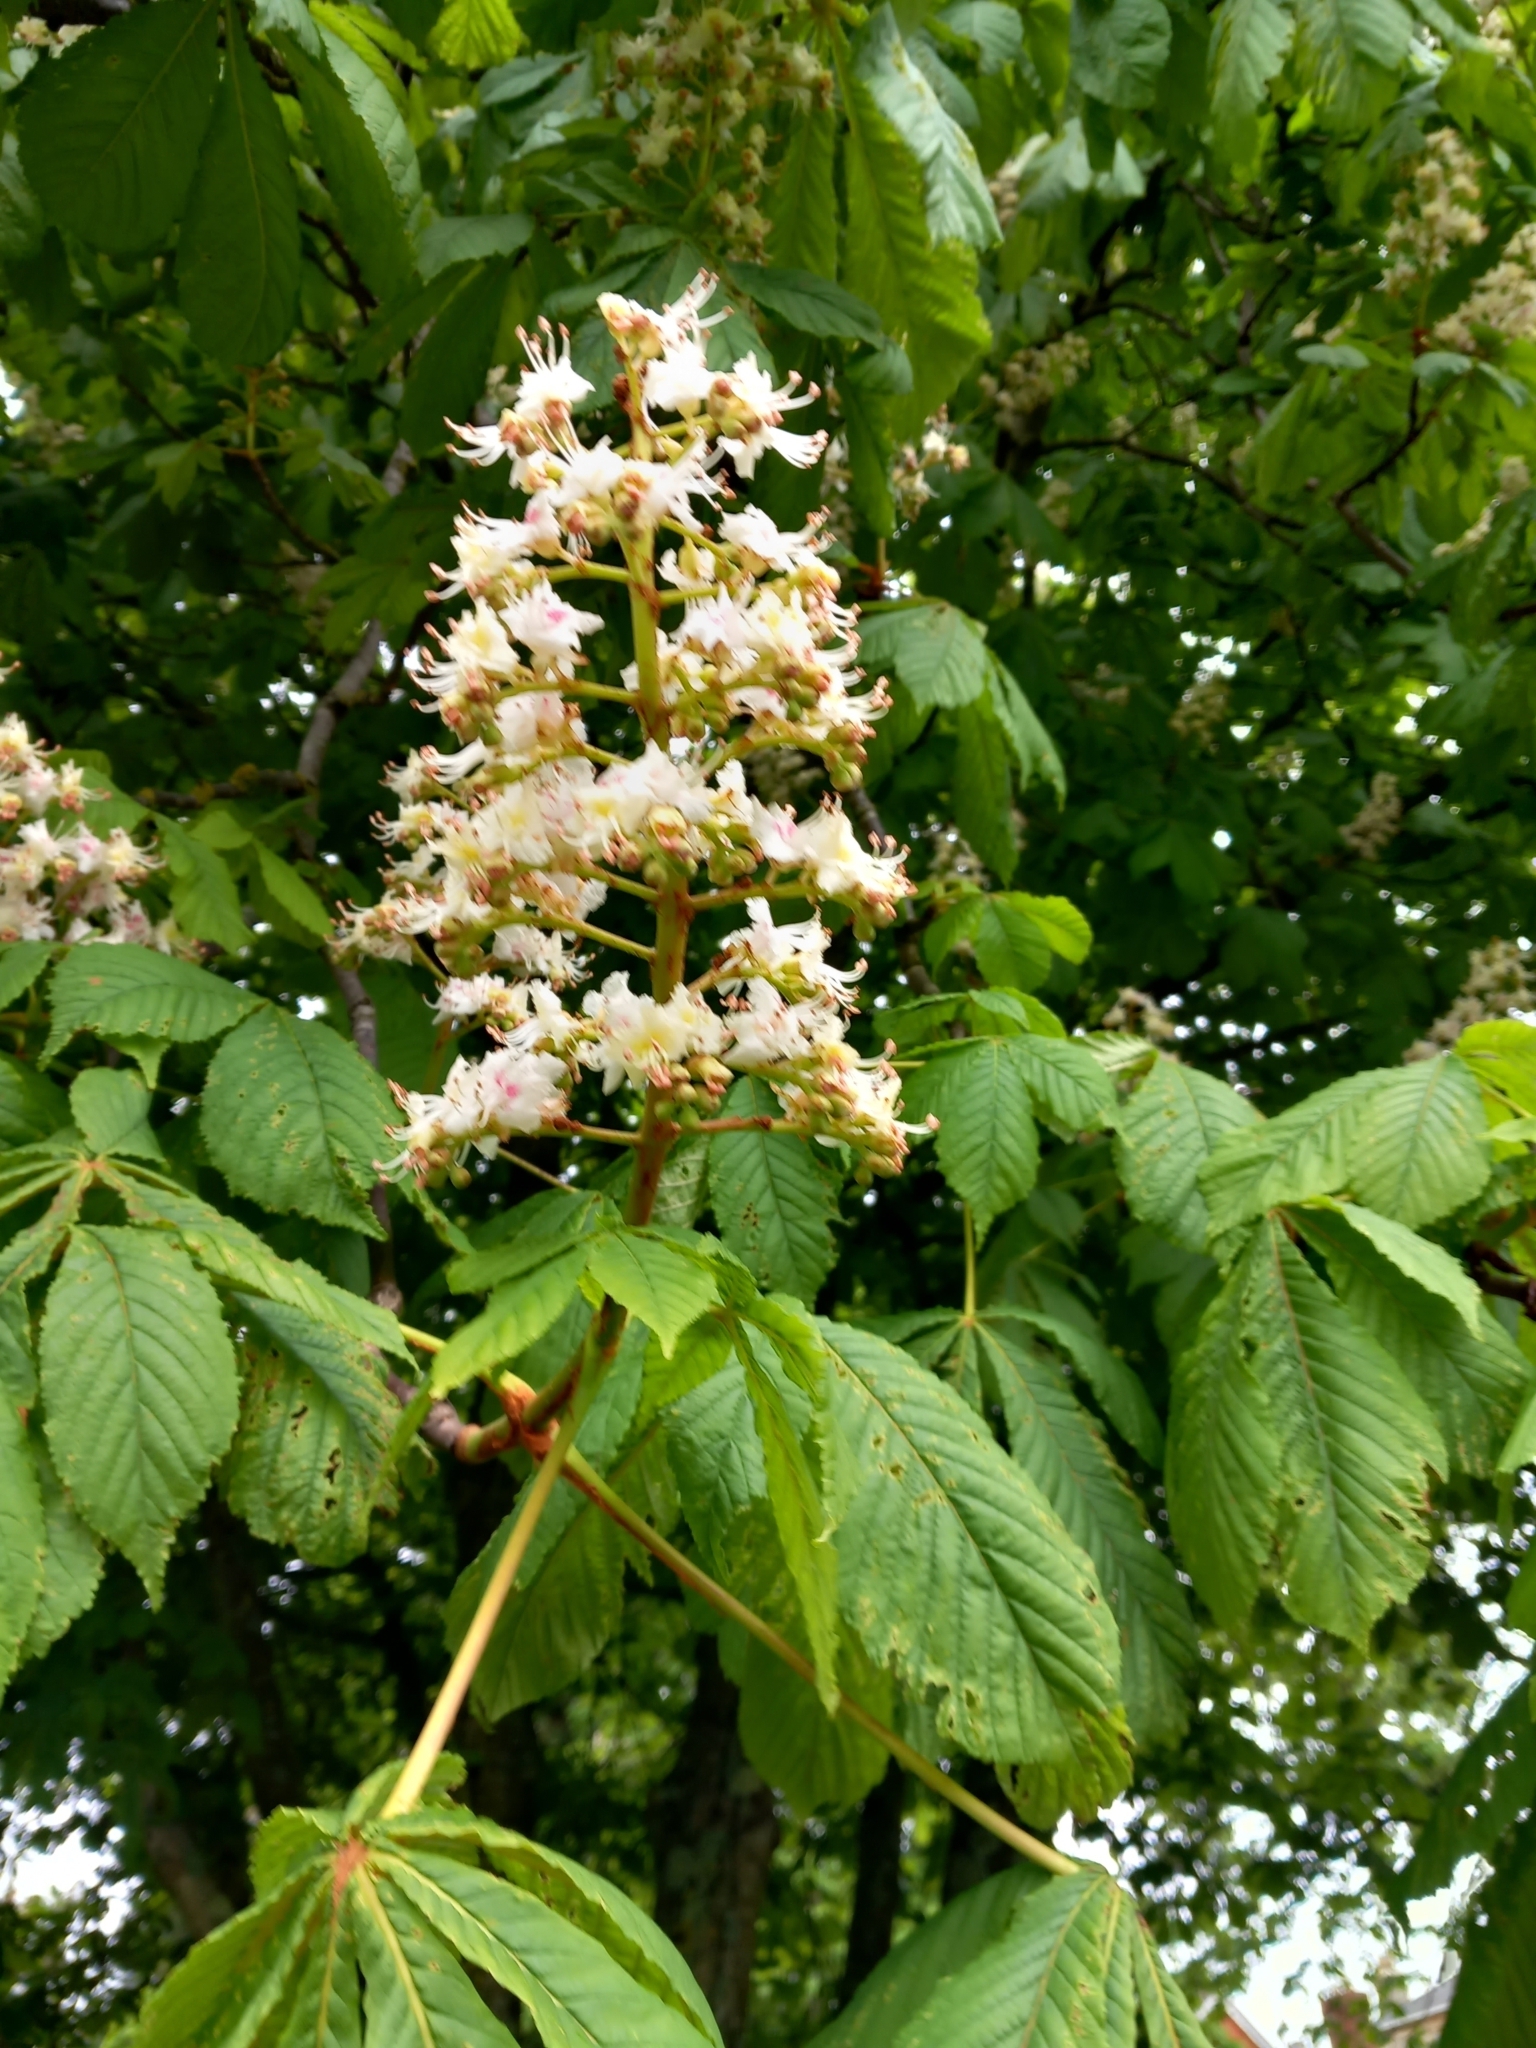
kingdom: Plantae
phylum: Tracheophyta
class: Magnoliopsida
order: Sapindales
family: Sapindaceae
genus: Aesculus
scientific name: Aesculus hippocastanum
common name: Horse-chestnut
